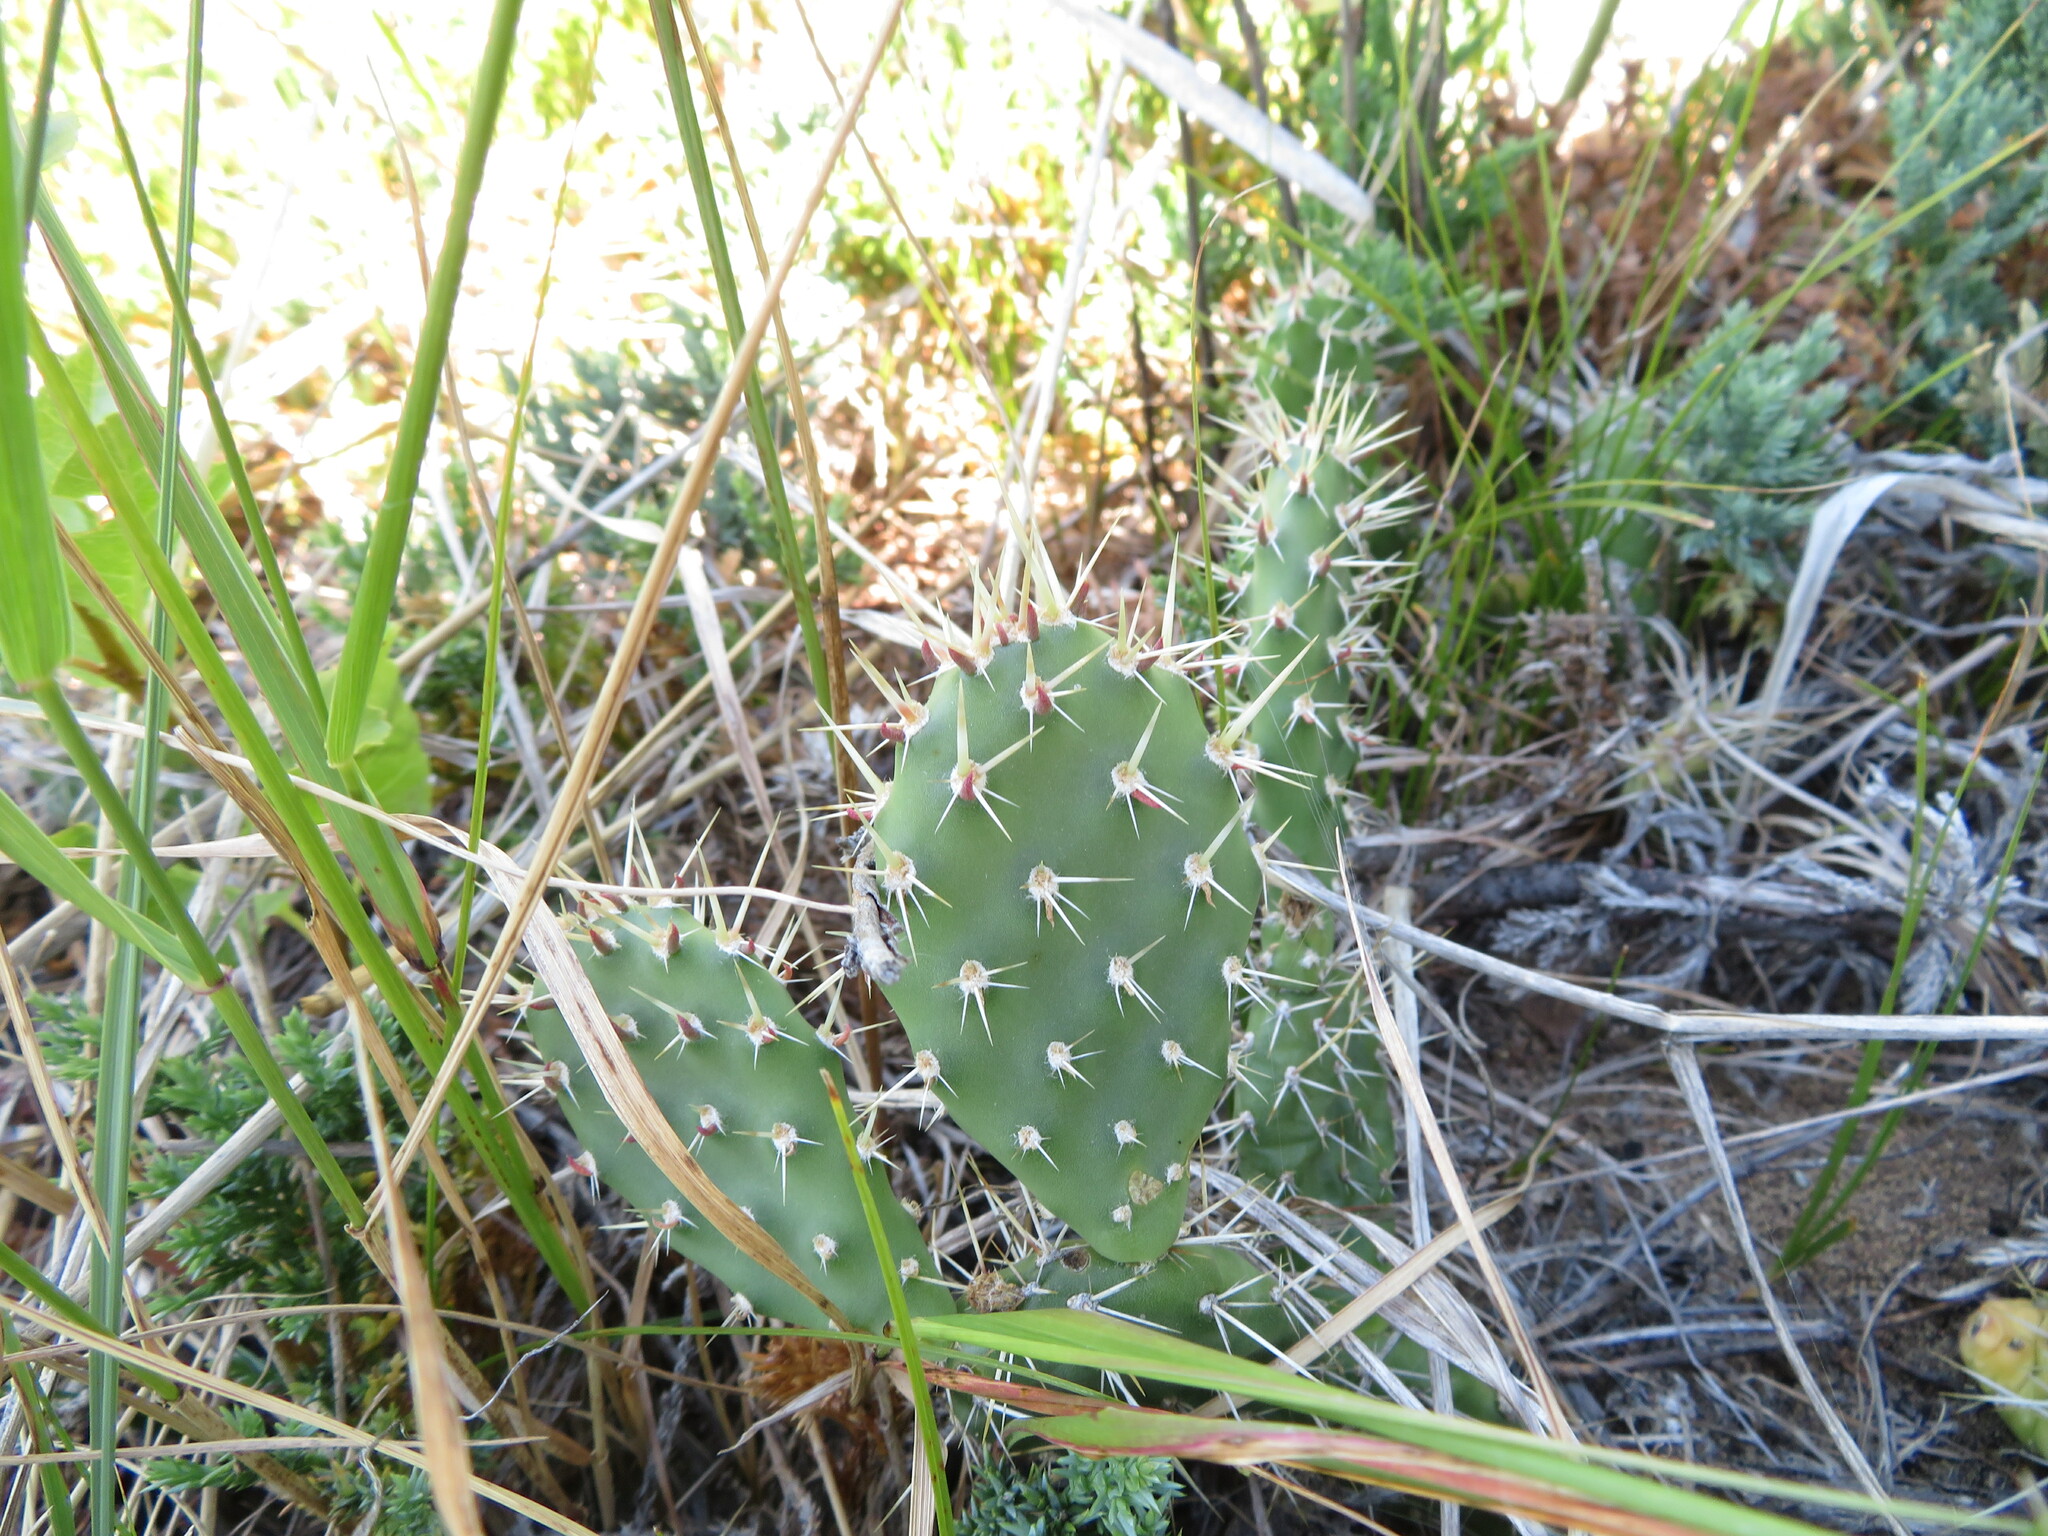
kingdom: Plantae
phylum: Tracheophyta
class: Magnoliopsida
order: Caryophyllales
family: Cactaceae
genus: Opuntia
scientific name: Opuntia polyacantha
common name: Plains prickly-pear
